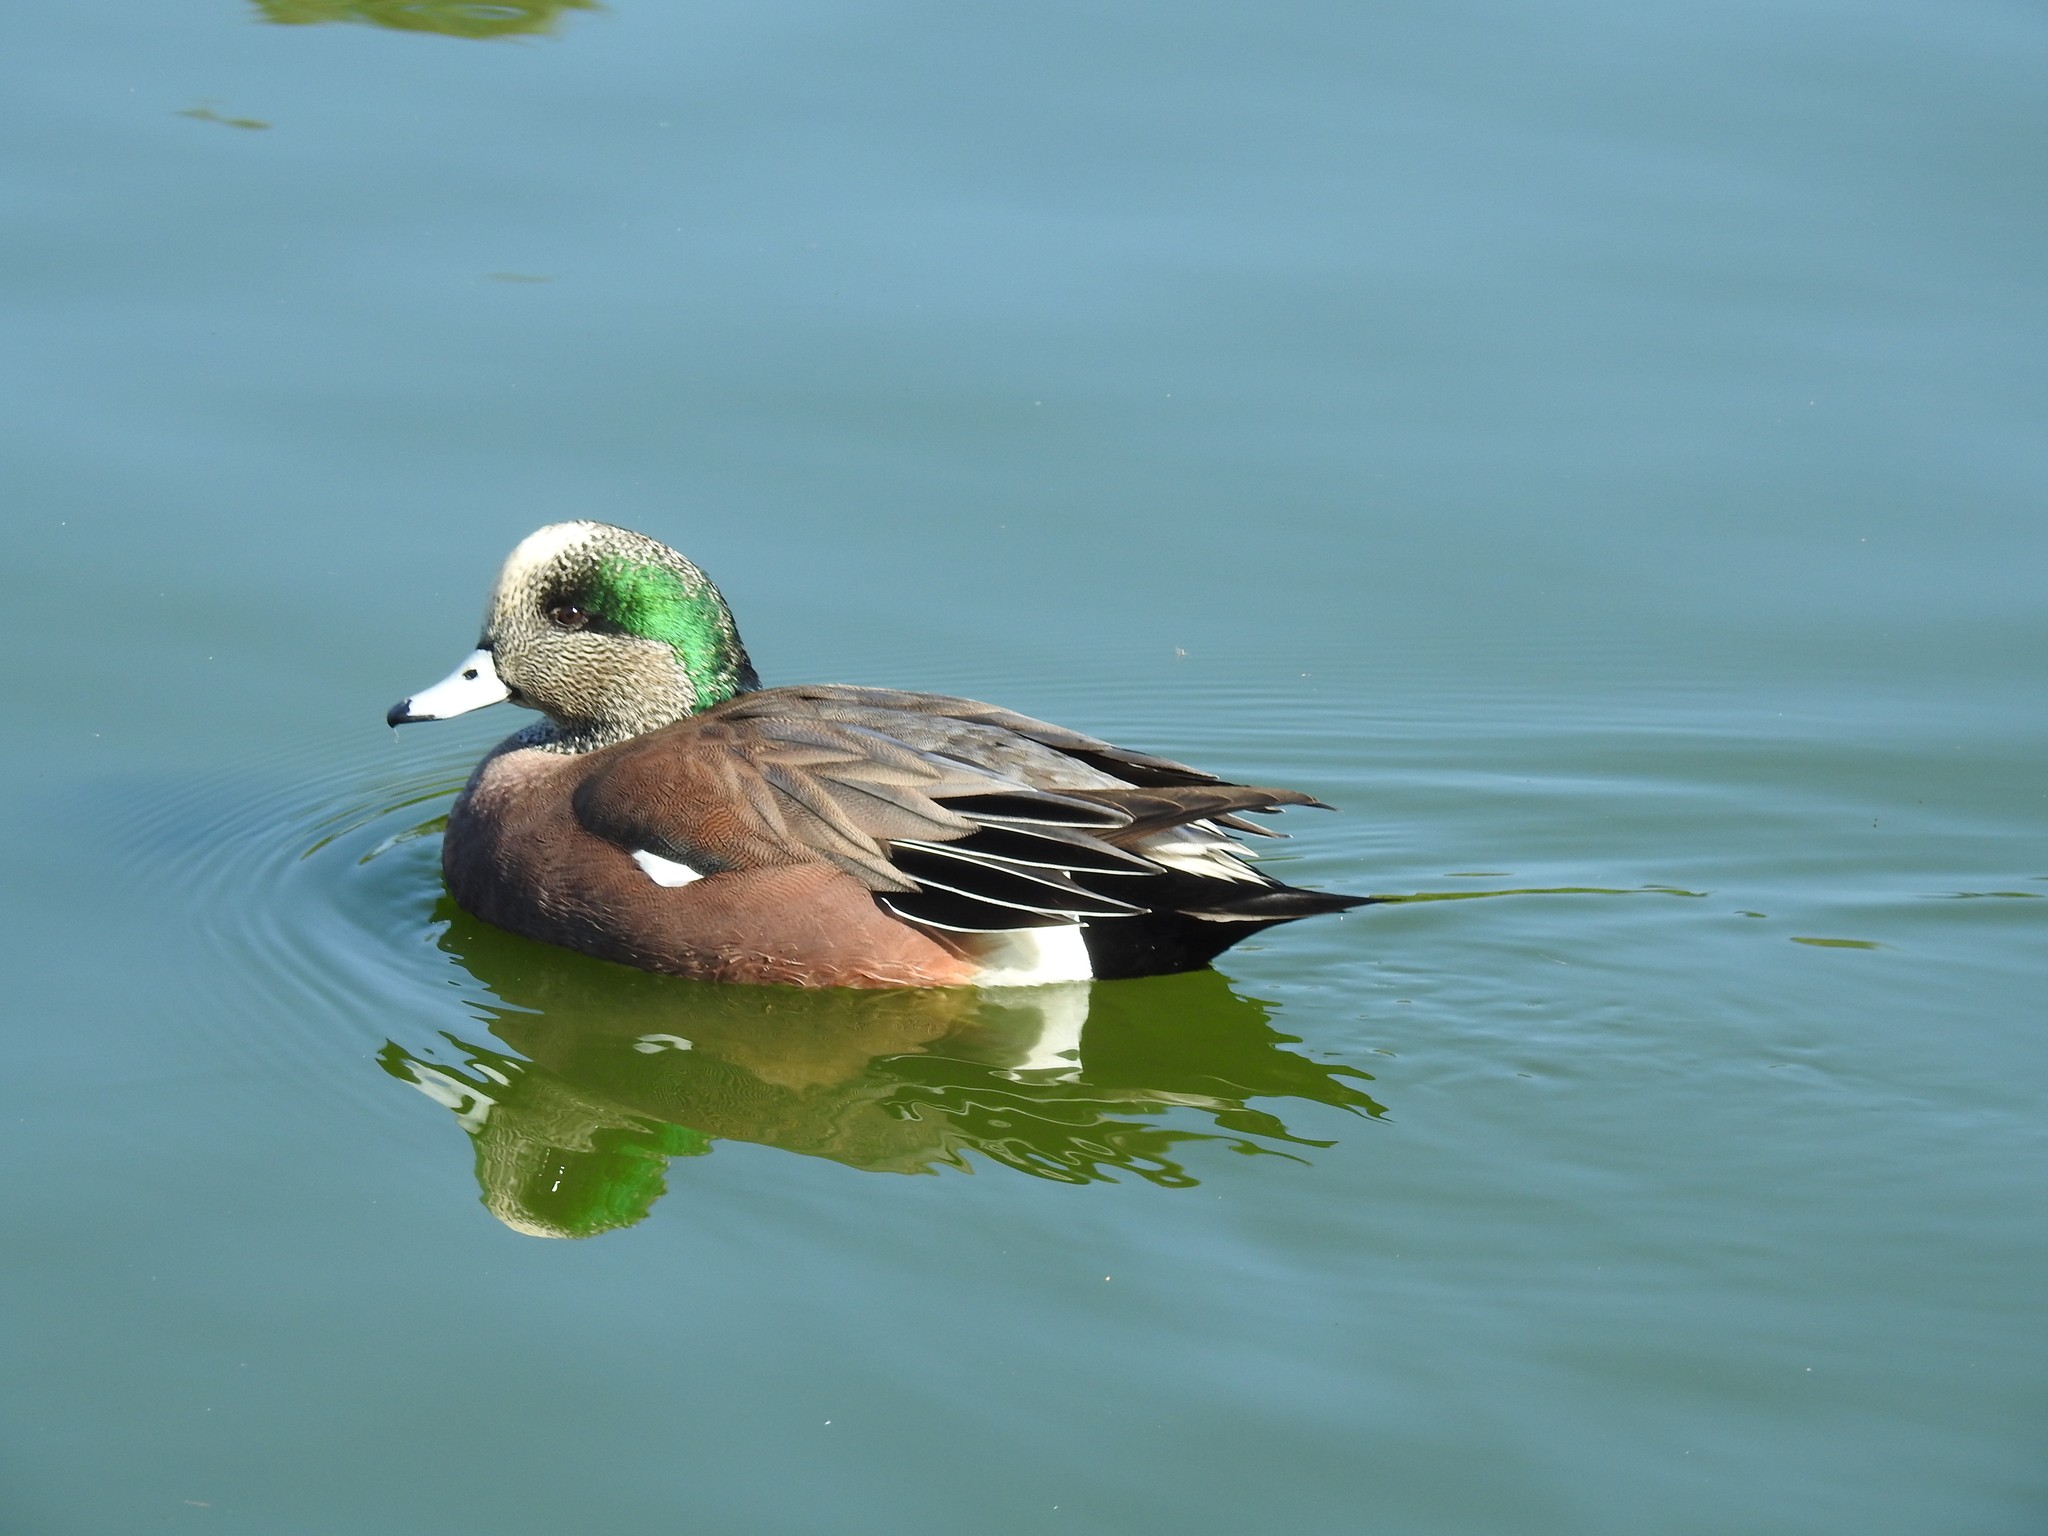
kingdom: Animalia
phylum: Chordata
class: Aves
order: Anseriformes
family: Anatidae
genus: Mareca
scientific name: Mareca americana
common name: American wigeon
